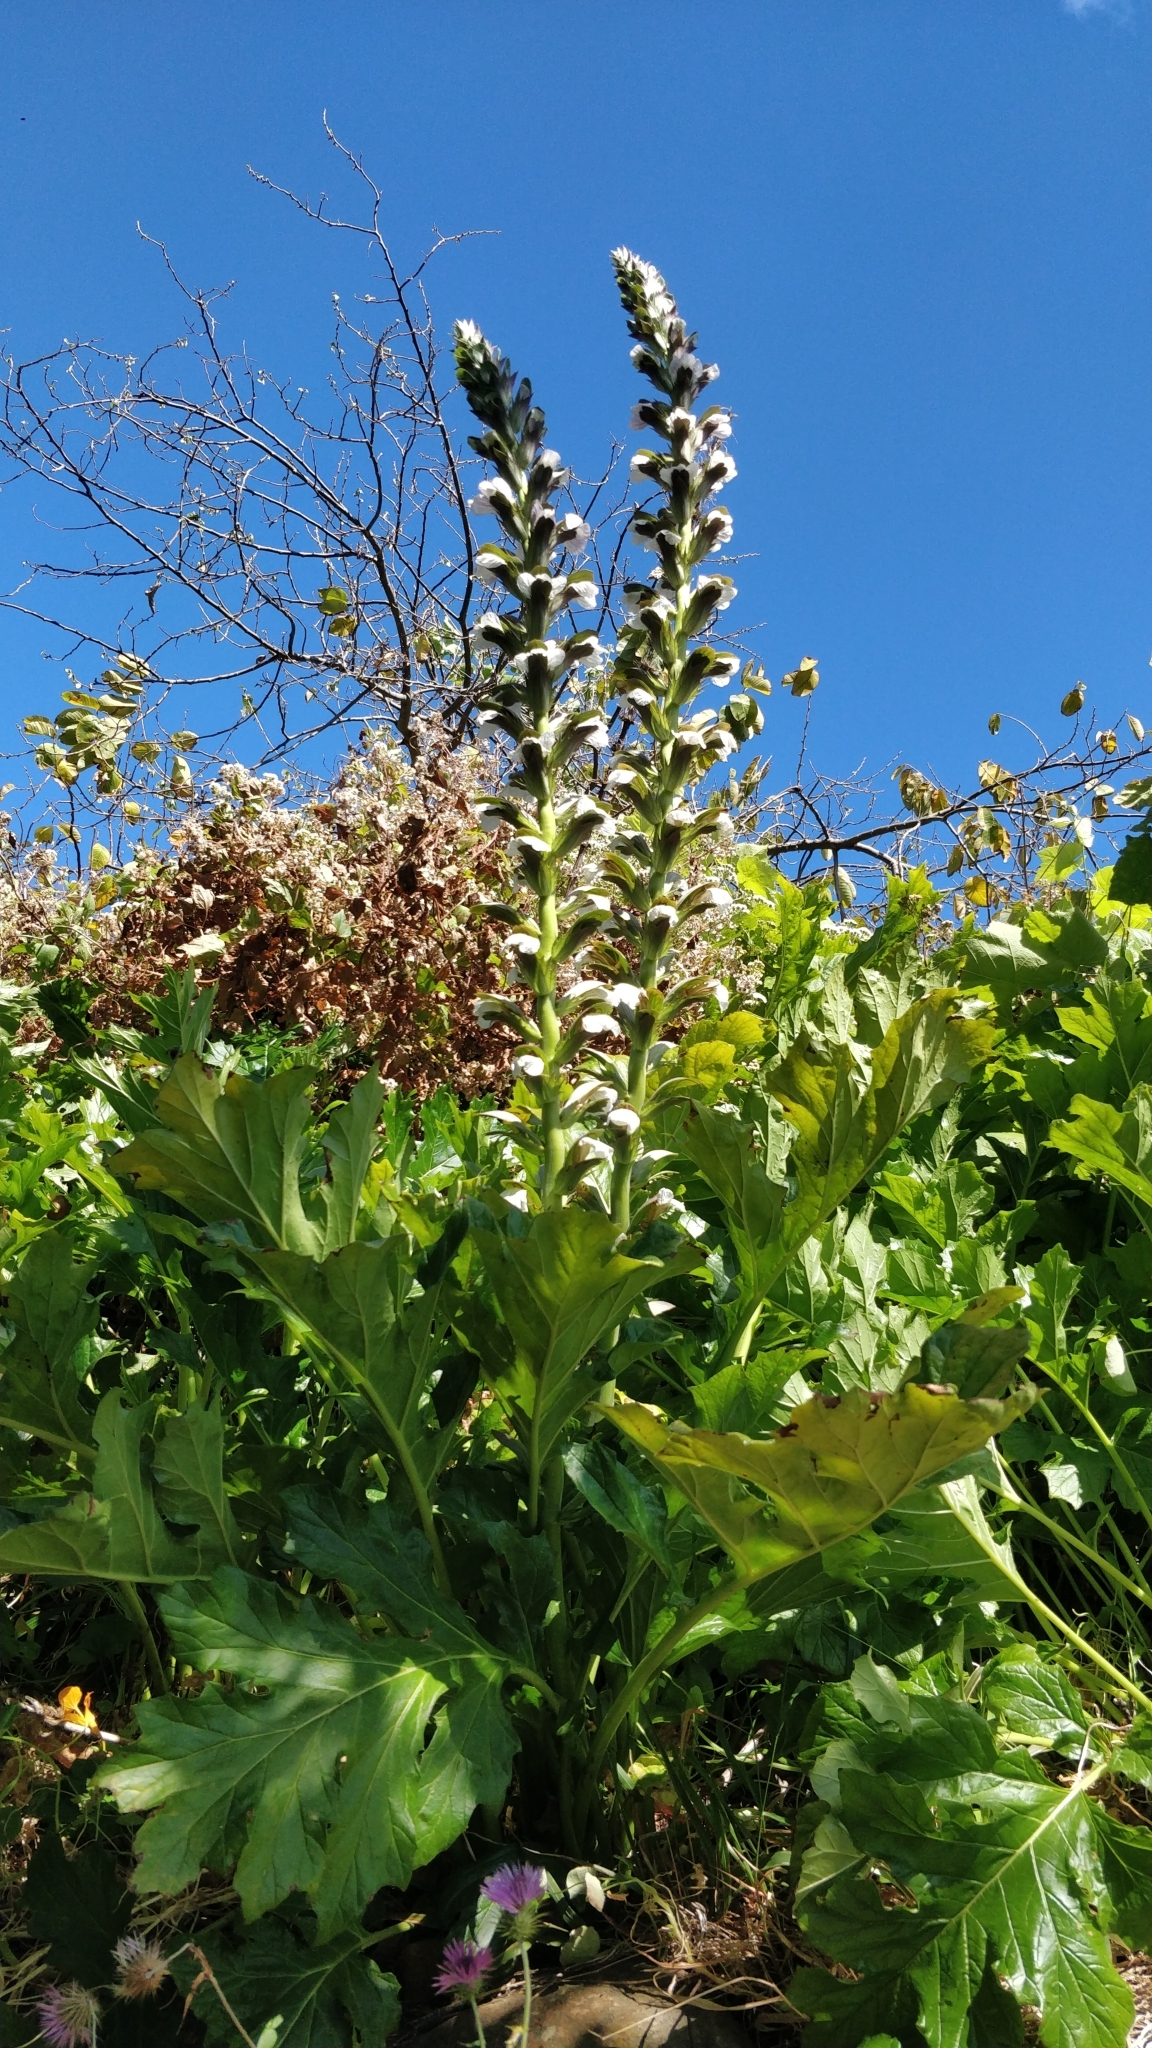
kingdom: Plantae
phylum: Tracheophyta
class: Magnoliopsida
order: Lamiales
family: Acanthaceae
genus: Acanthus
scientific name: Acanthus mollis
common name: Bear's-breech
